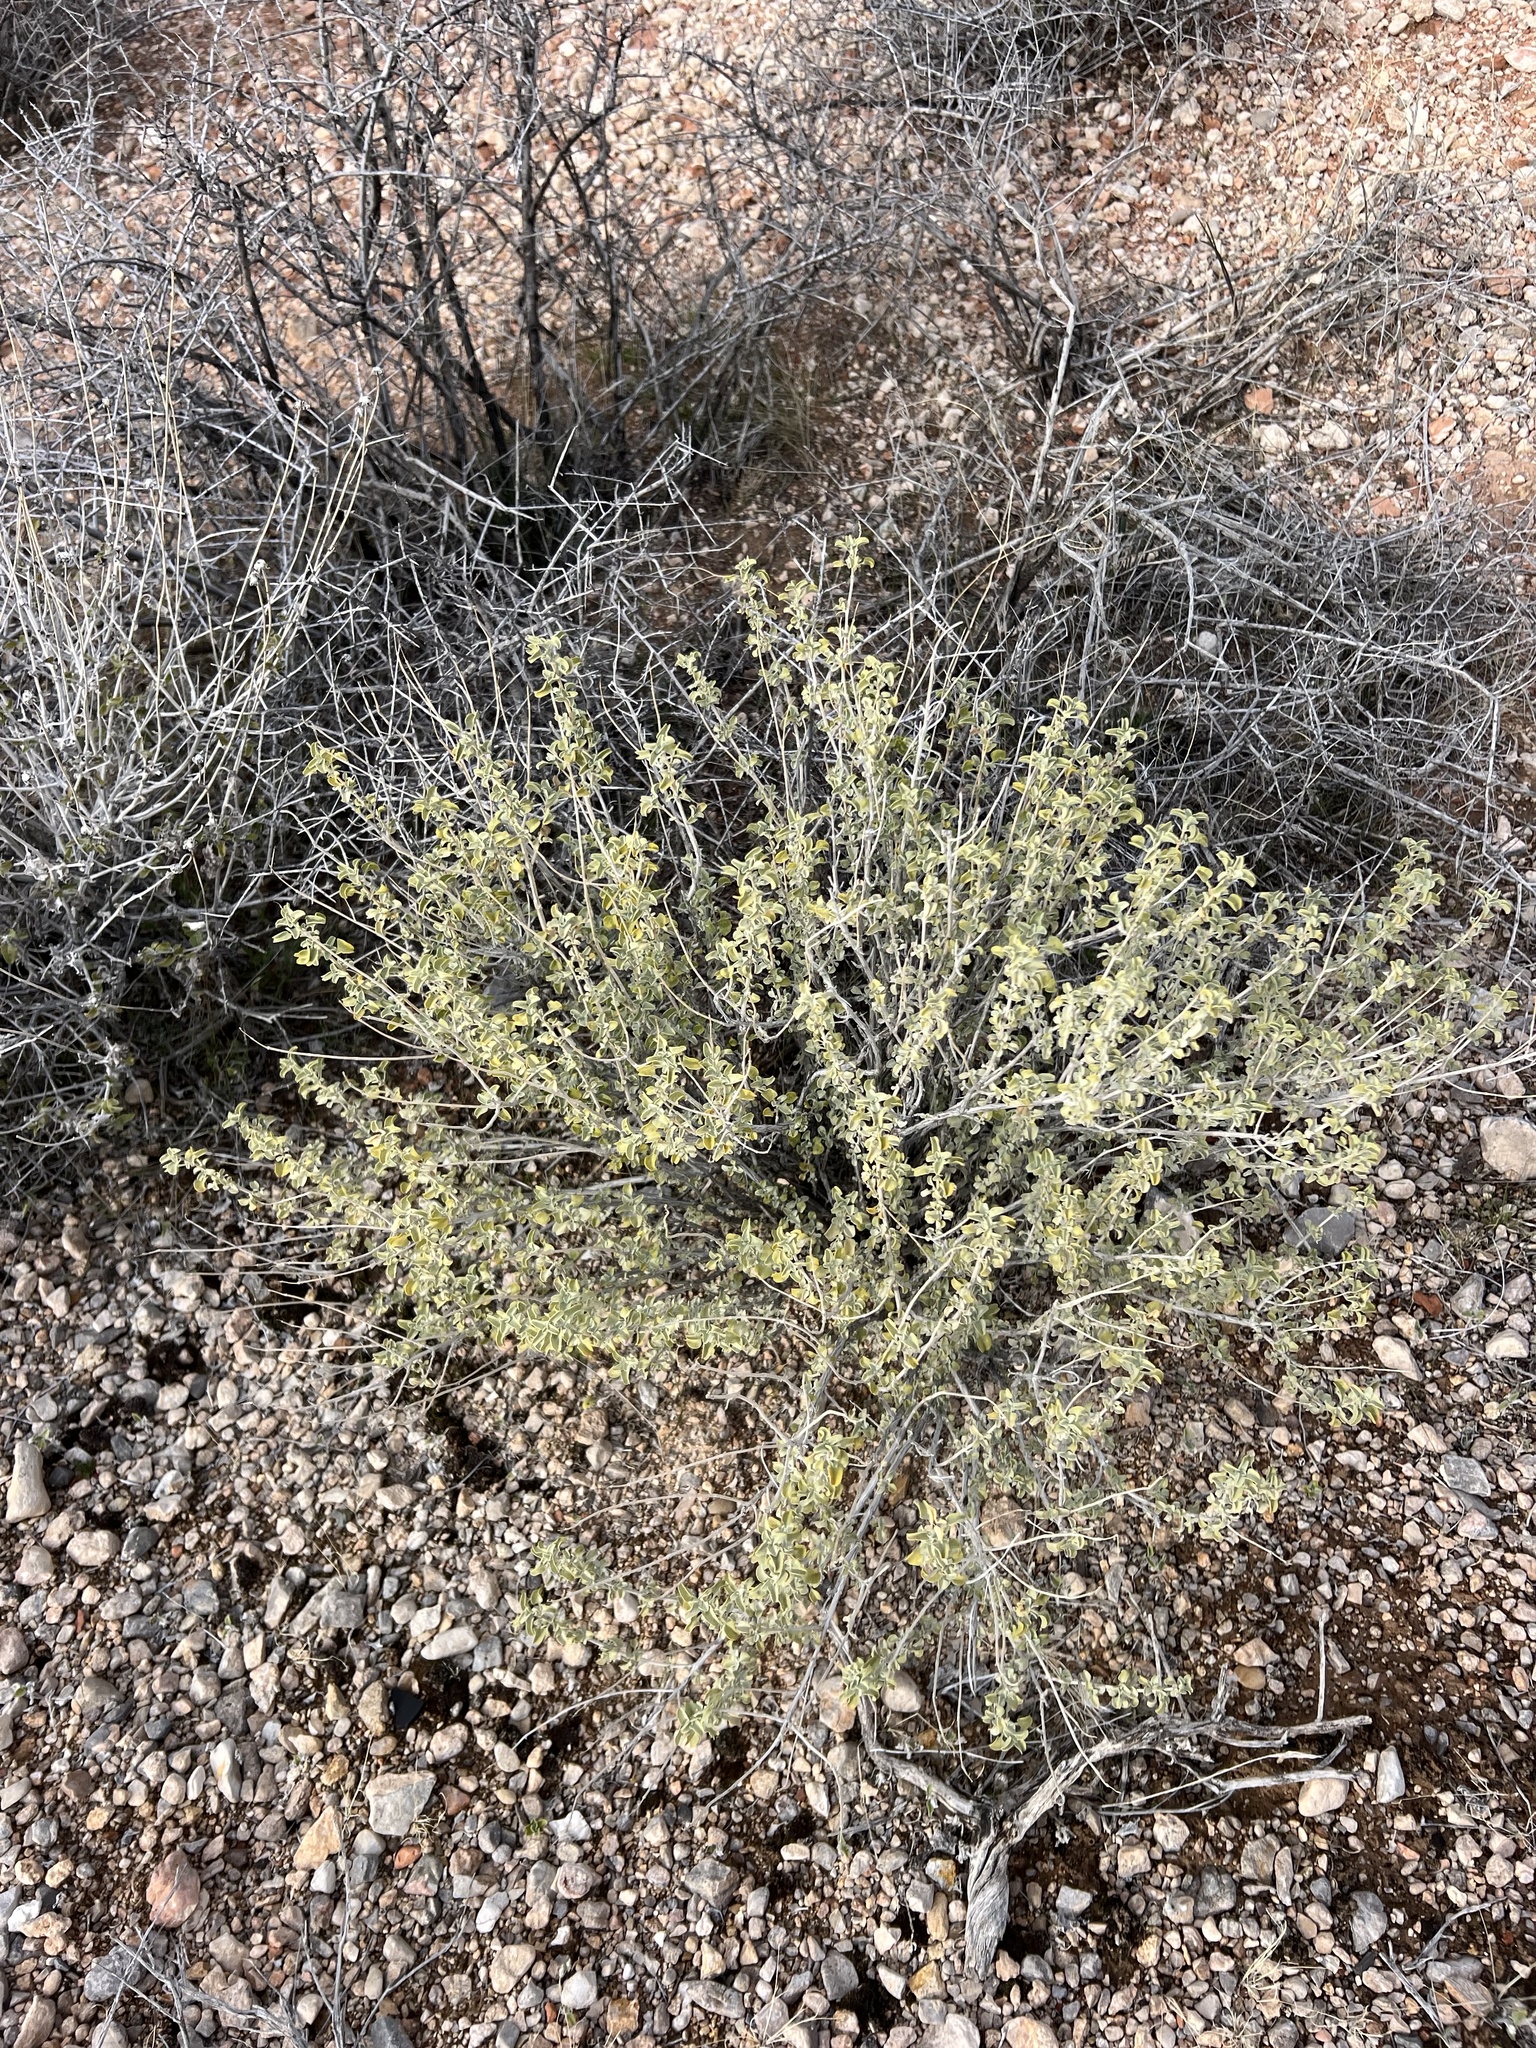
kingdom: Plantae
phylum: Tracheophyta
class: Magnoliopsida
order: Lamiales
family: Lamiaceae
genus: Salvia
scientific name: Salvia dorrii
